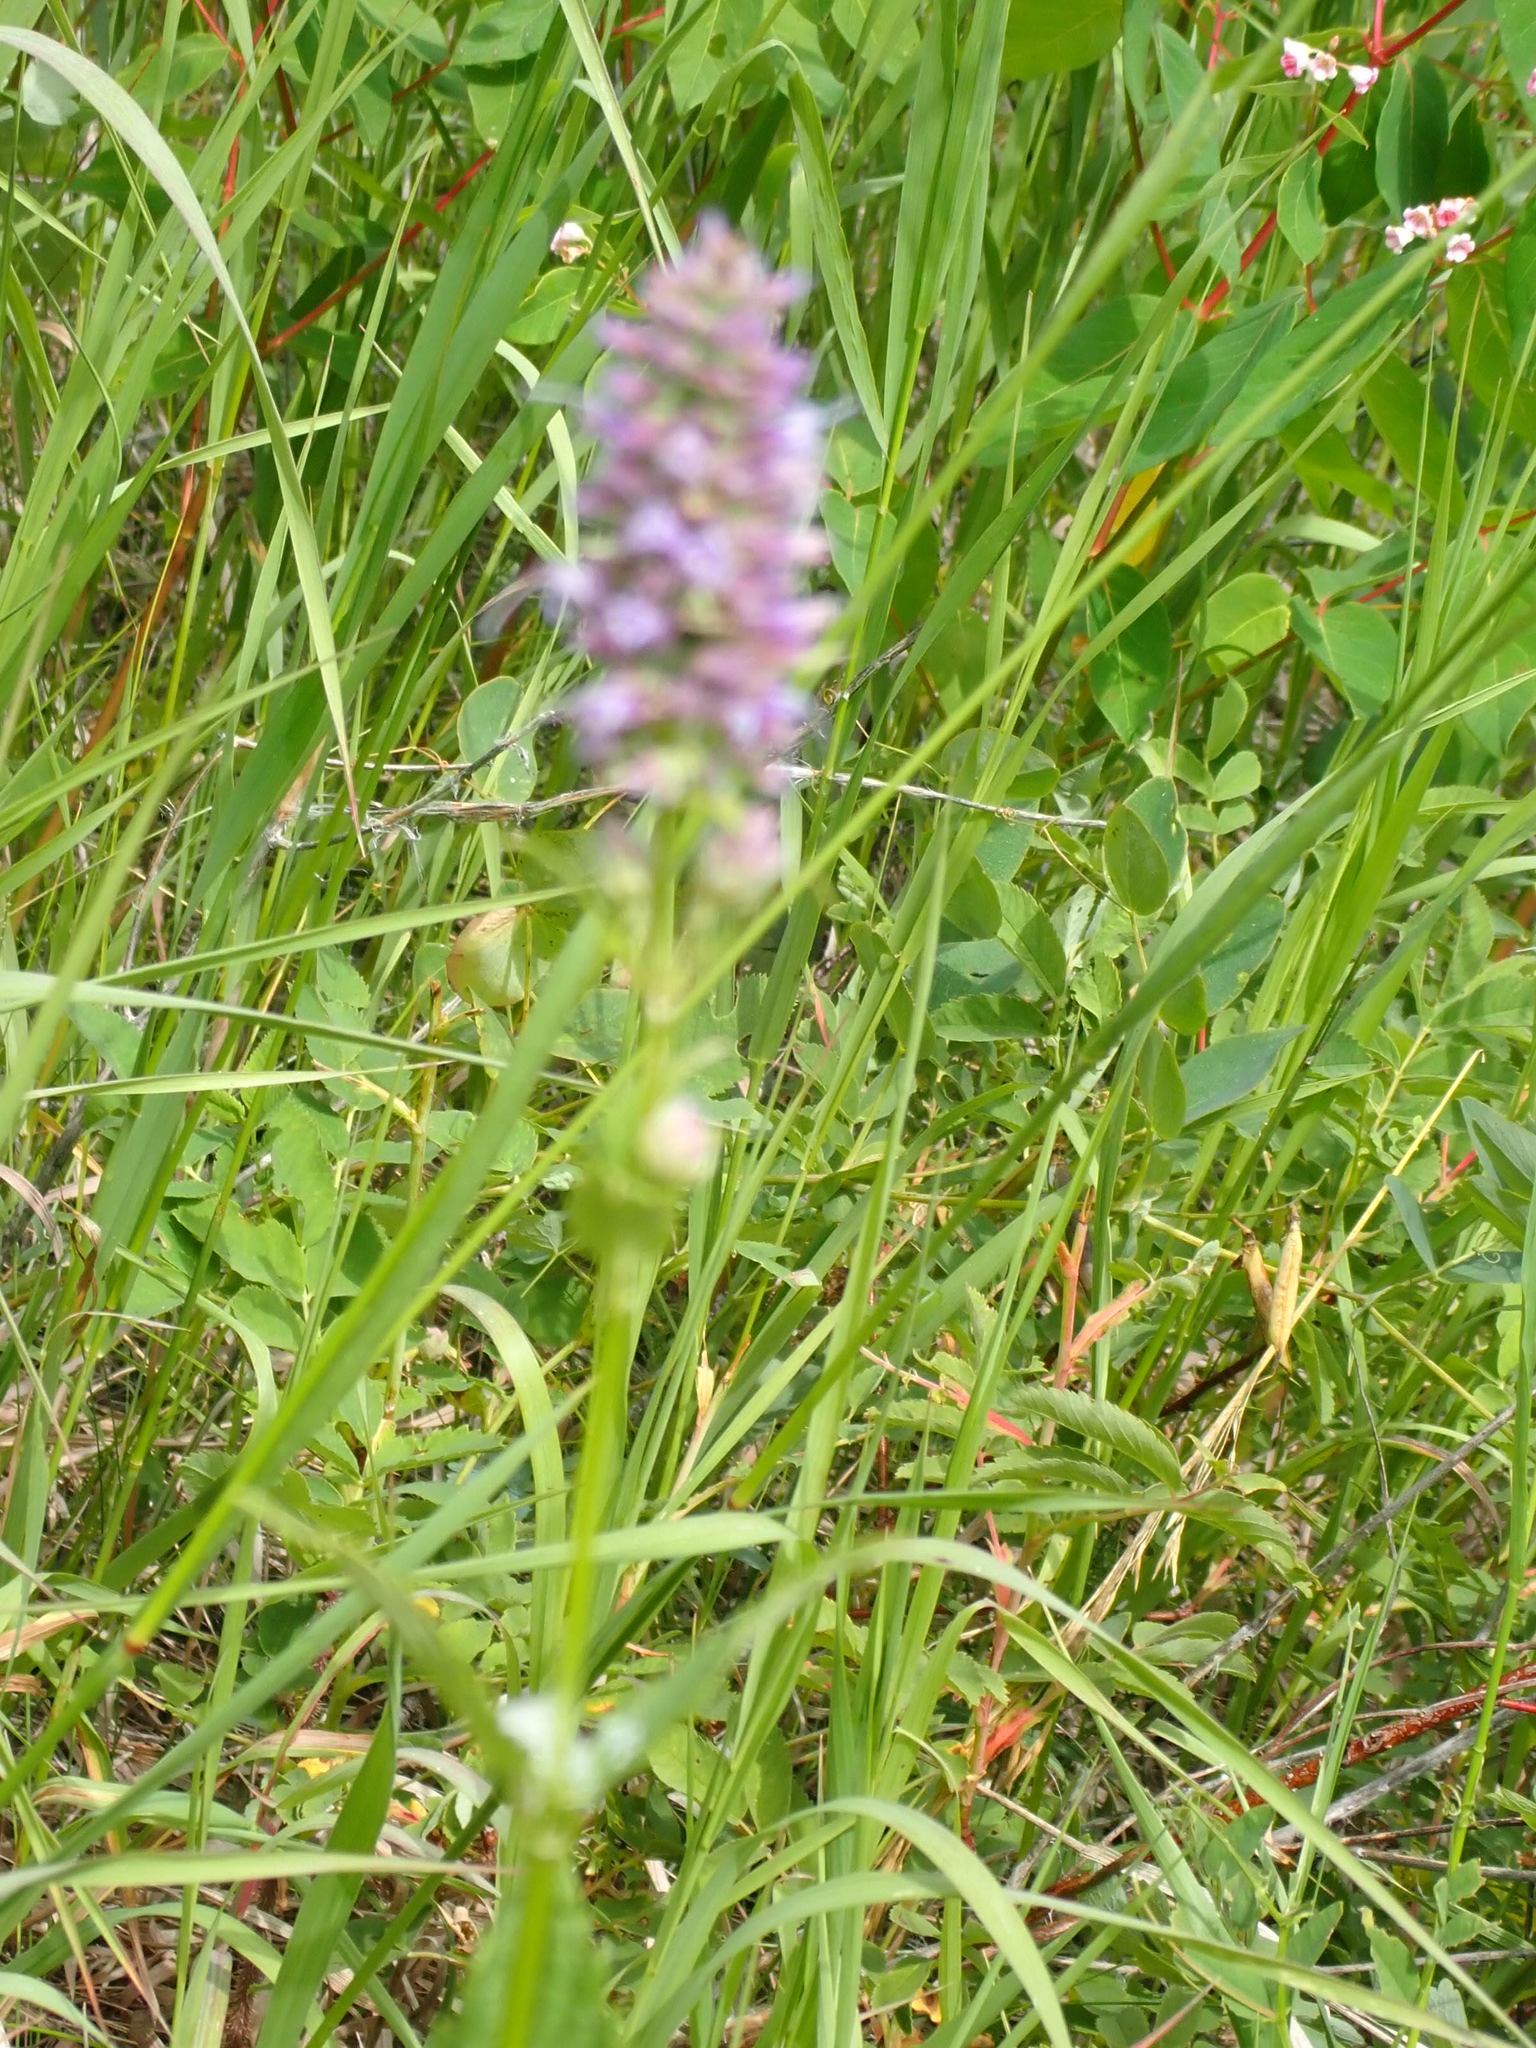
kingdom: Plantae
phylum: Tracheophyta
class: Magnoliopsida
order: Lamiales
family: Lamiaceae
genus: Agastache
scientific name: Agastache foeniculum
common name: Anise hyssop
